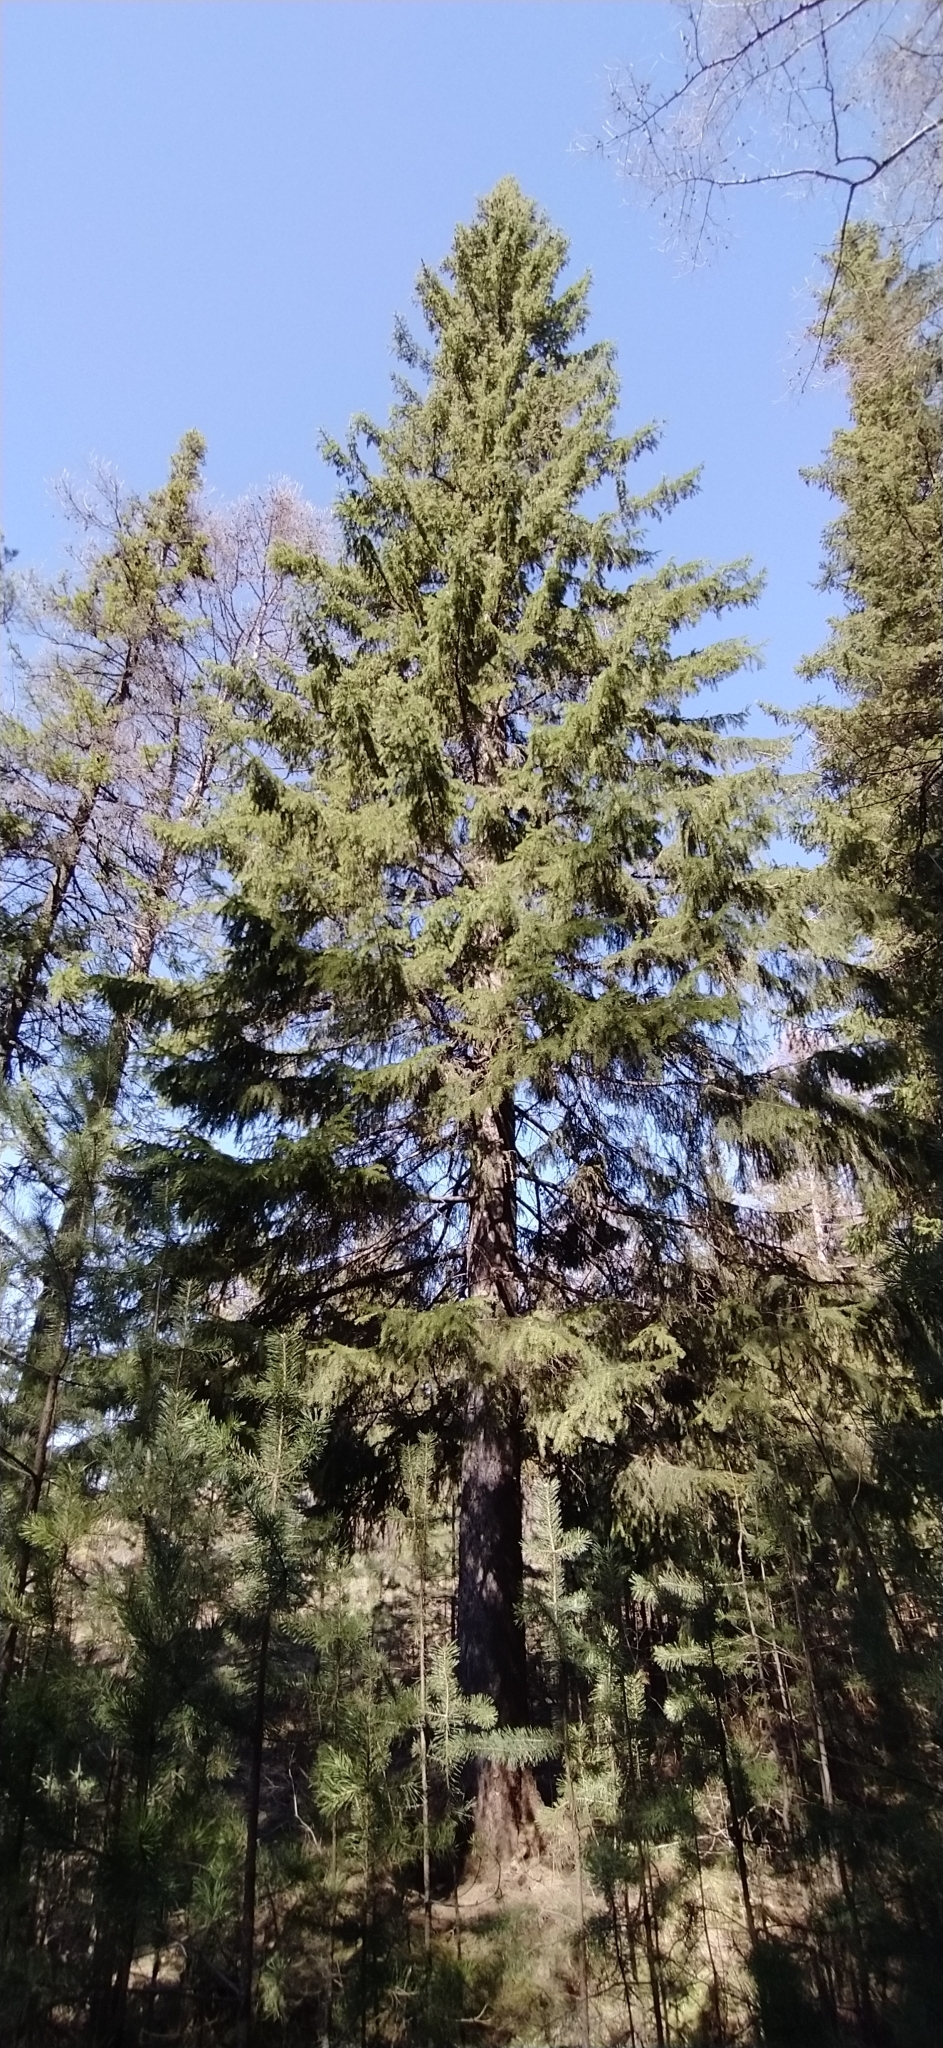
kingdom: Plantae
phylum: Tracheophyta
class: Pinopsida
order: Pinales
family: Pinaceae
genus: Picea
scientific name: Picea obovata
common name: Siberian spruce
